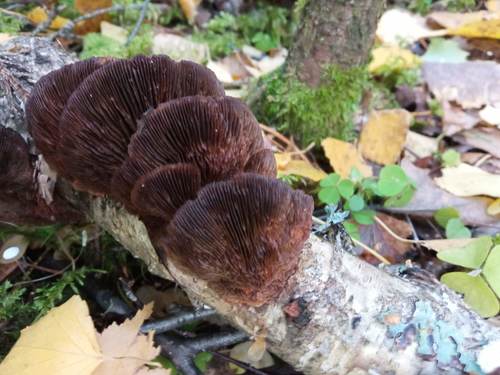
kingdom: Fungi
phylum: Basidiomycota
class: Agaricomycetes
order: Polyporales
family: Polyporaceae
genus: Daedaleopsis
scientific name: Daedaleopsis tricolor
